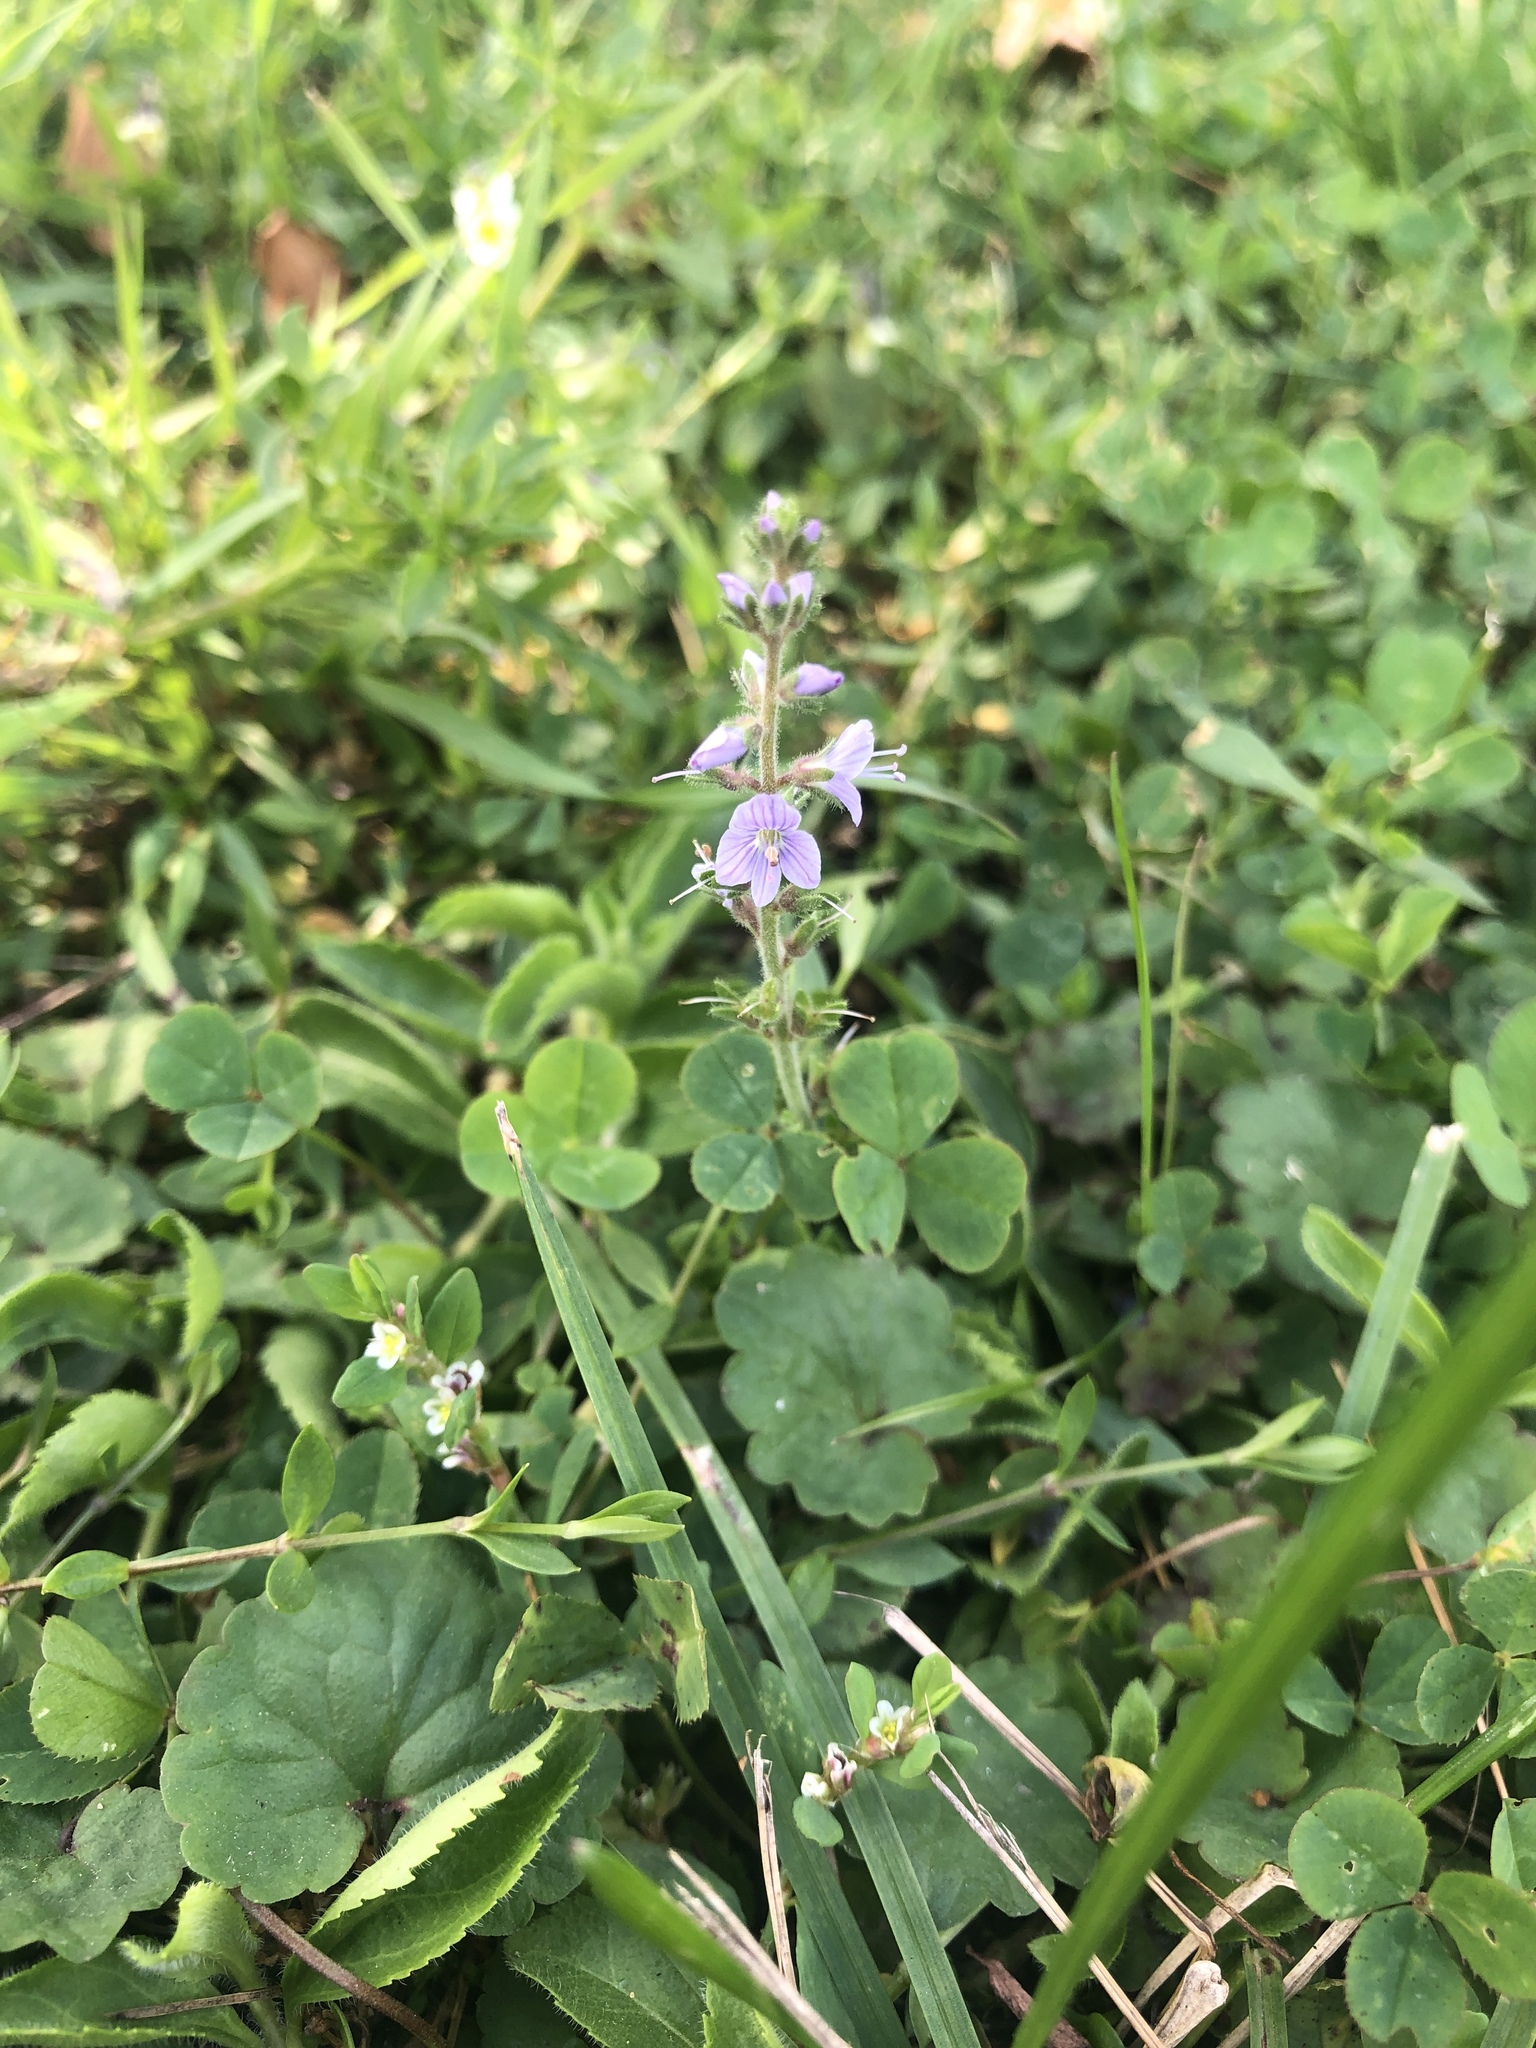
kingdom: Plantae
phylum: Tracheophyta
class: Magnoliopsida
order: Lamiales
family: Plantaginaceae
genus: Veronica
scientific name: Veronica officinalis
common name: Common speedwell
